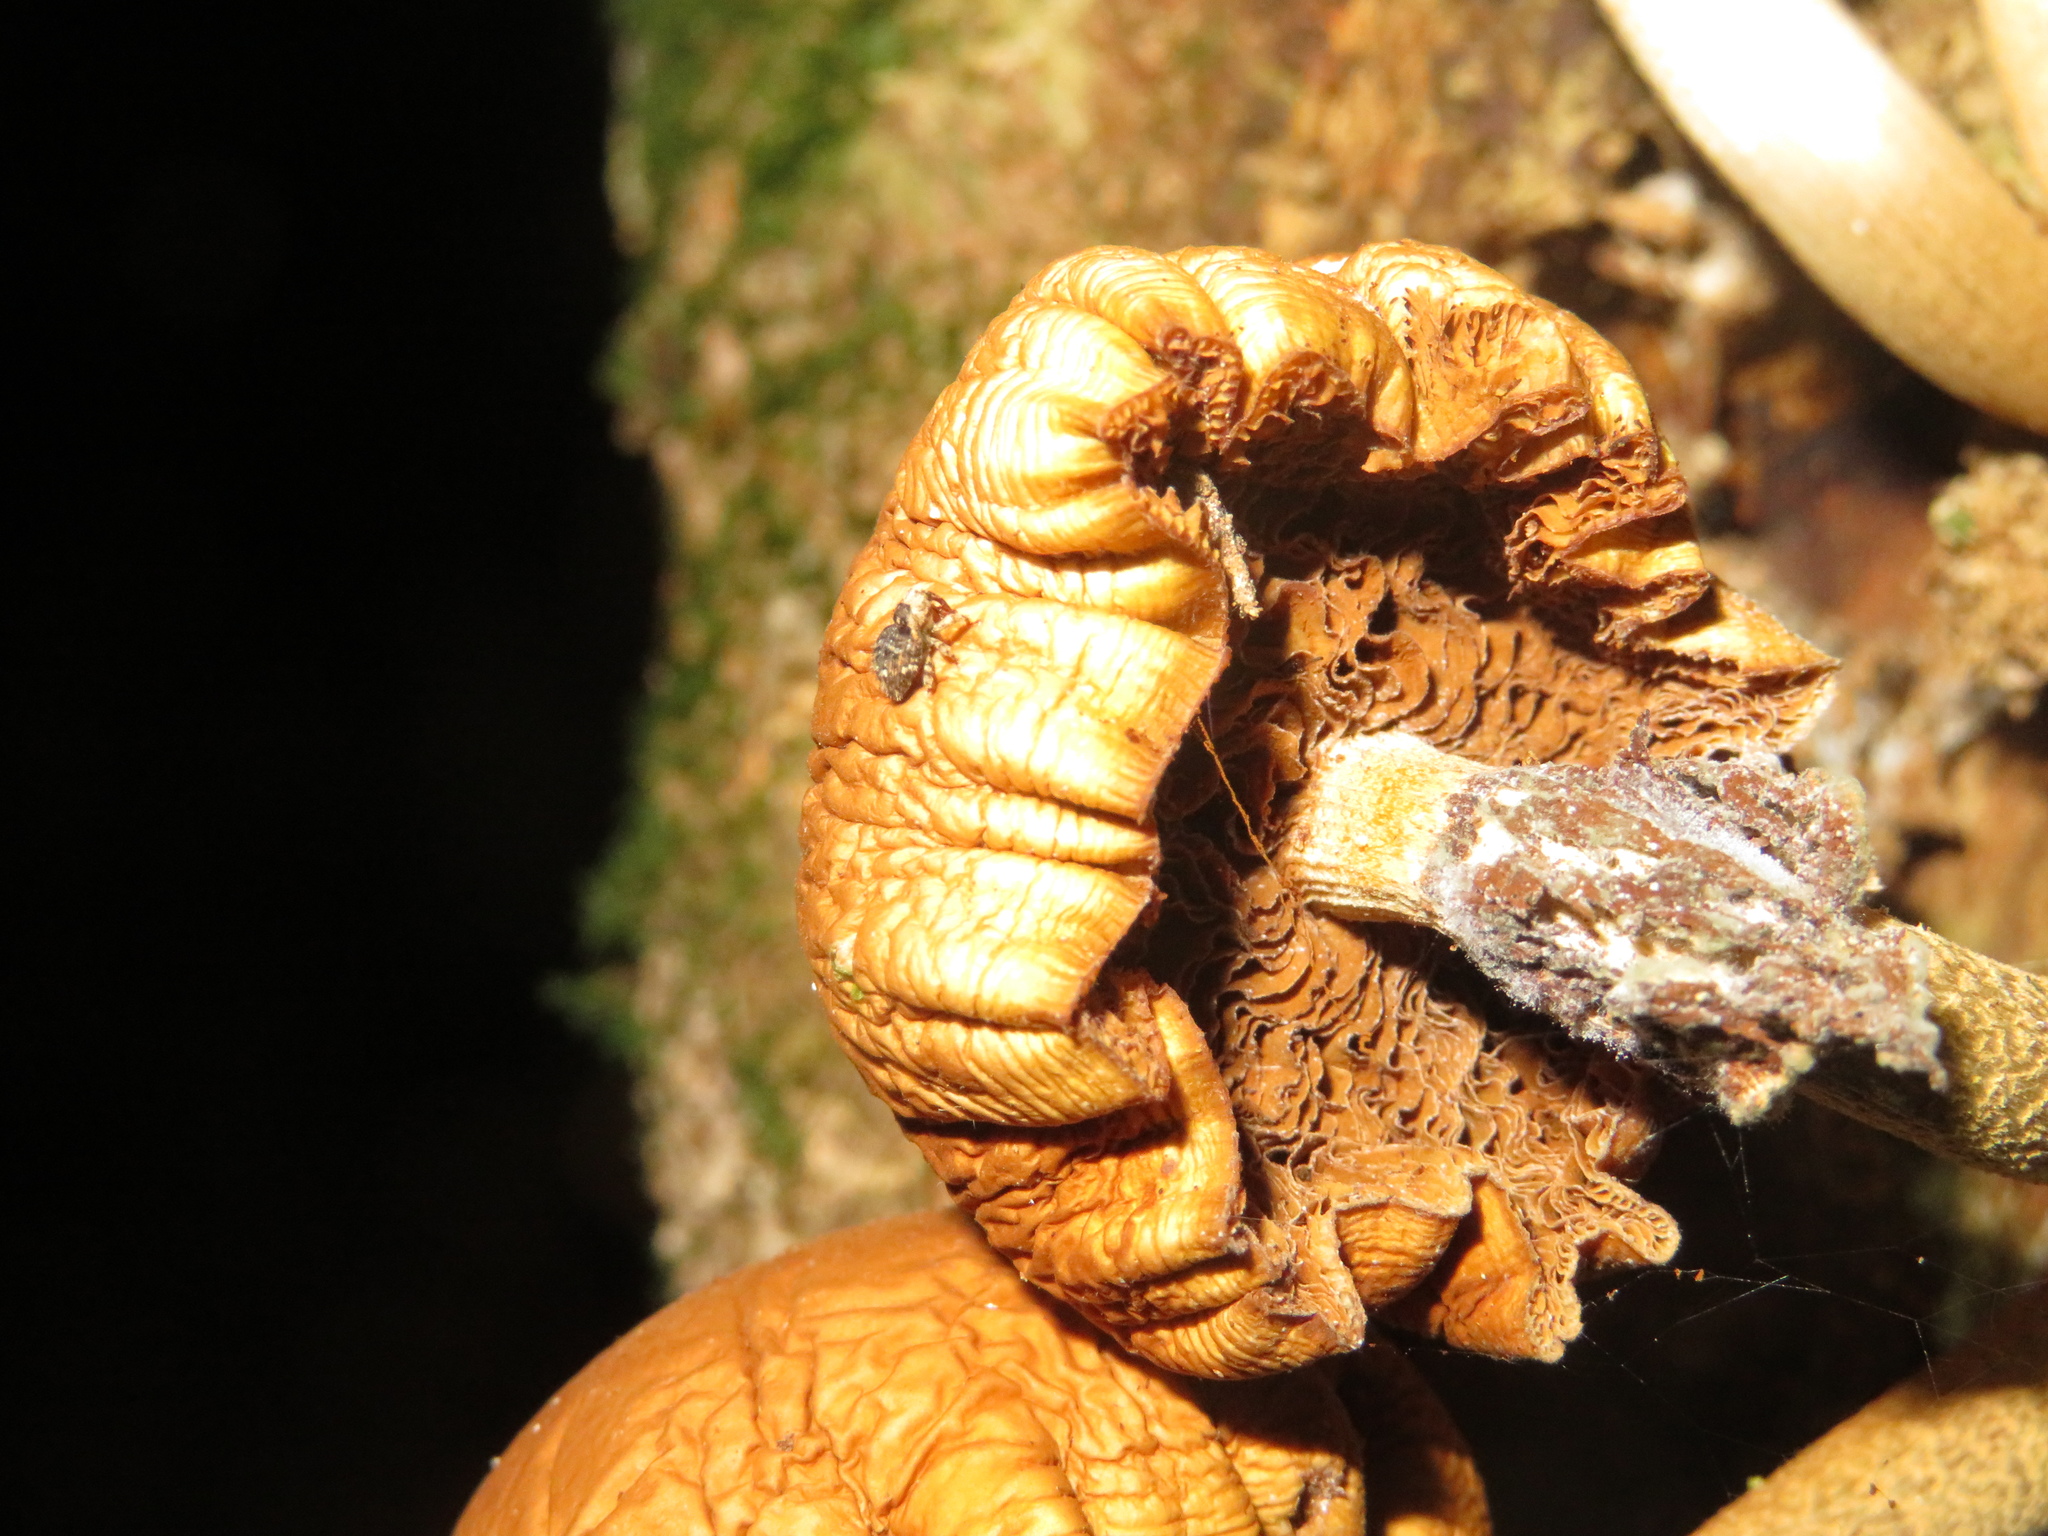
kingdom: Animalia
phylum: Arthropoda
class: Insecta
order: Coleoptera
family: Curculionidae
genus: Omoeacalles
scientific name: Omoeacalles crisioides
